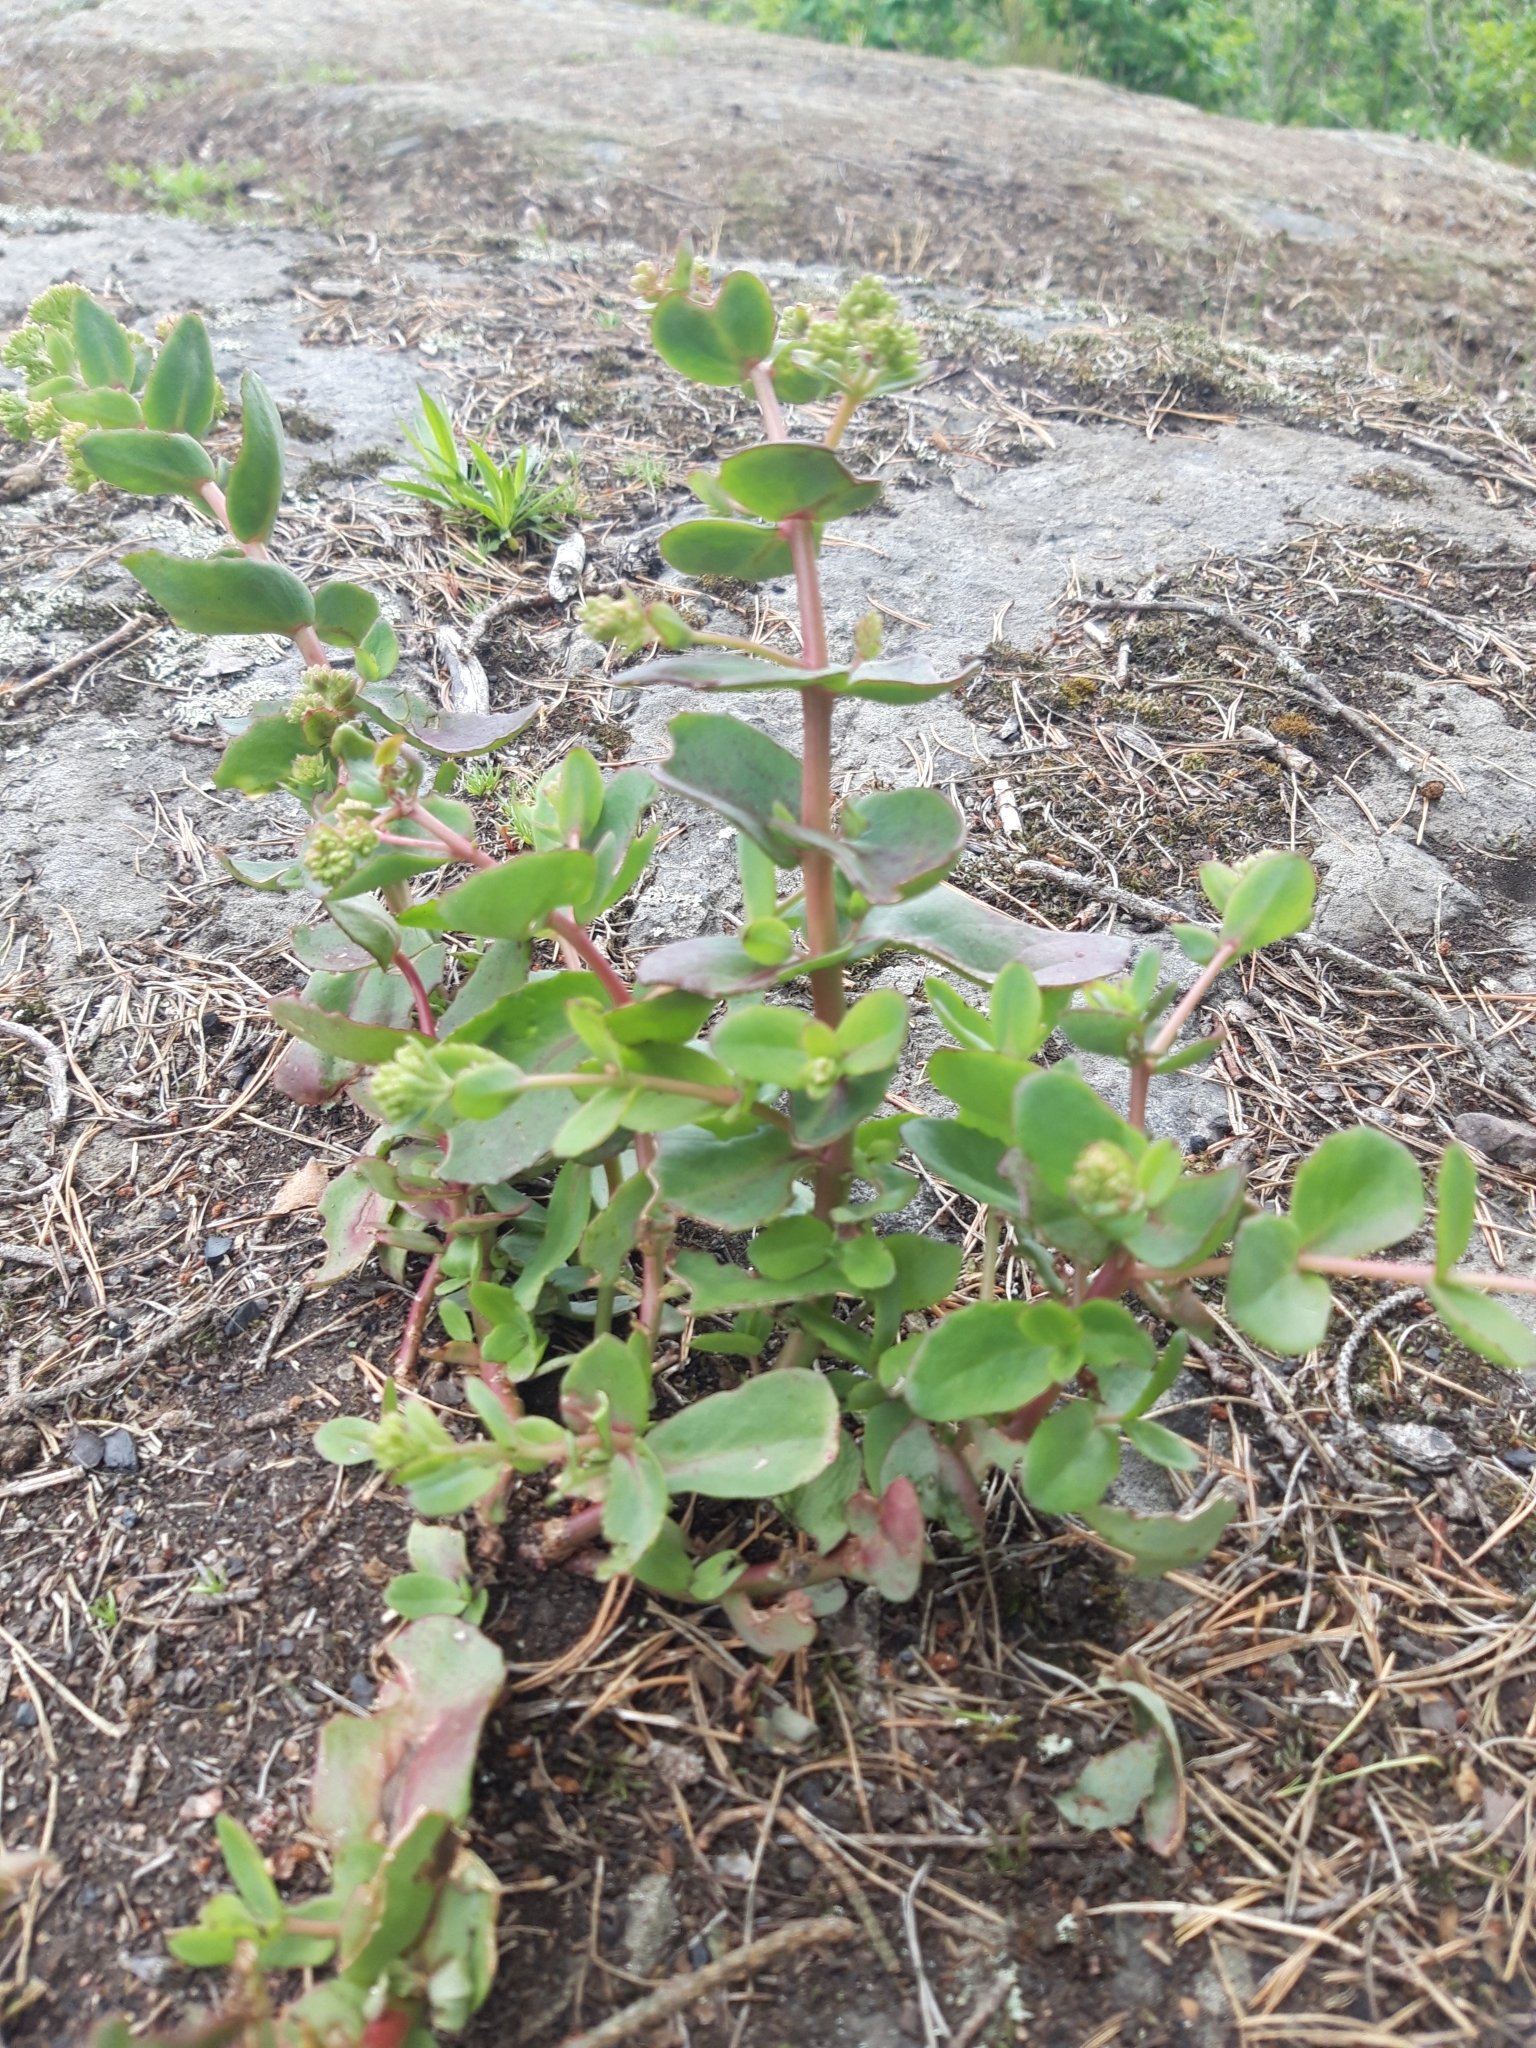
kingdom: Plantae
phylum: Tracheophyta
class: Magnoliopsida
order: Saxifragales
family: Crassulaceae
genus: Hylotelephium
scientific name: Hylotelephium maximum
